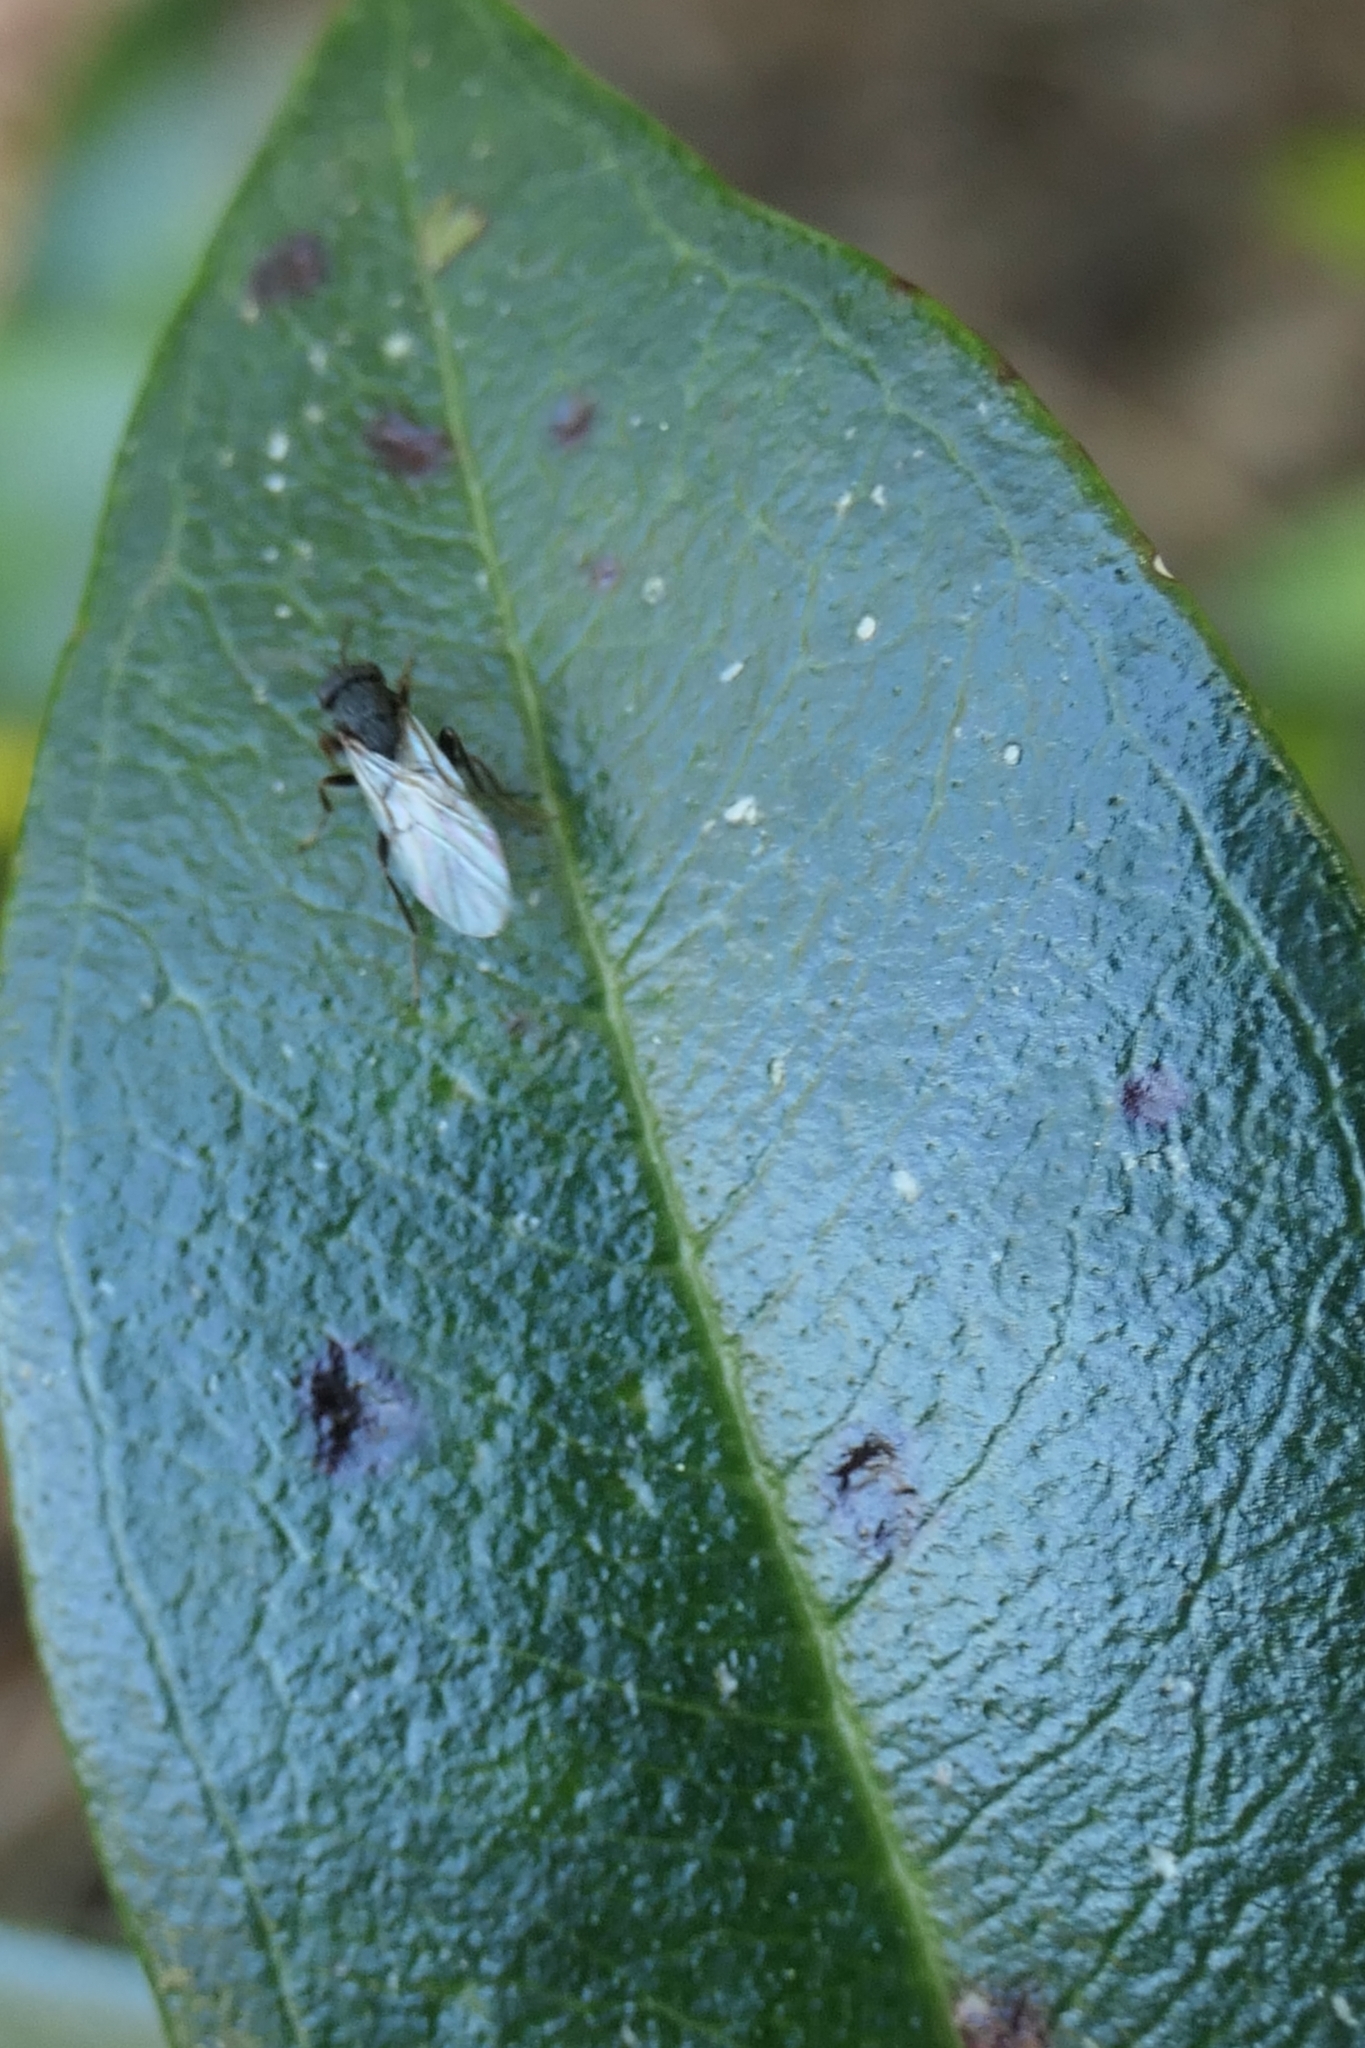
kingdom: Animalia
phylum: Arthropoda
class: Insecta
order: Hymenoptera
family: Cynipidae
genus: Callirhytis
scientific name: Callirhytis erythrocephala
